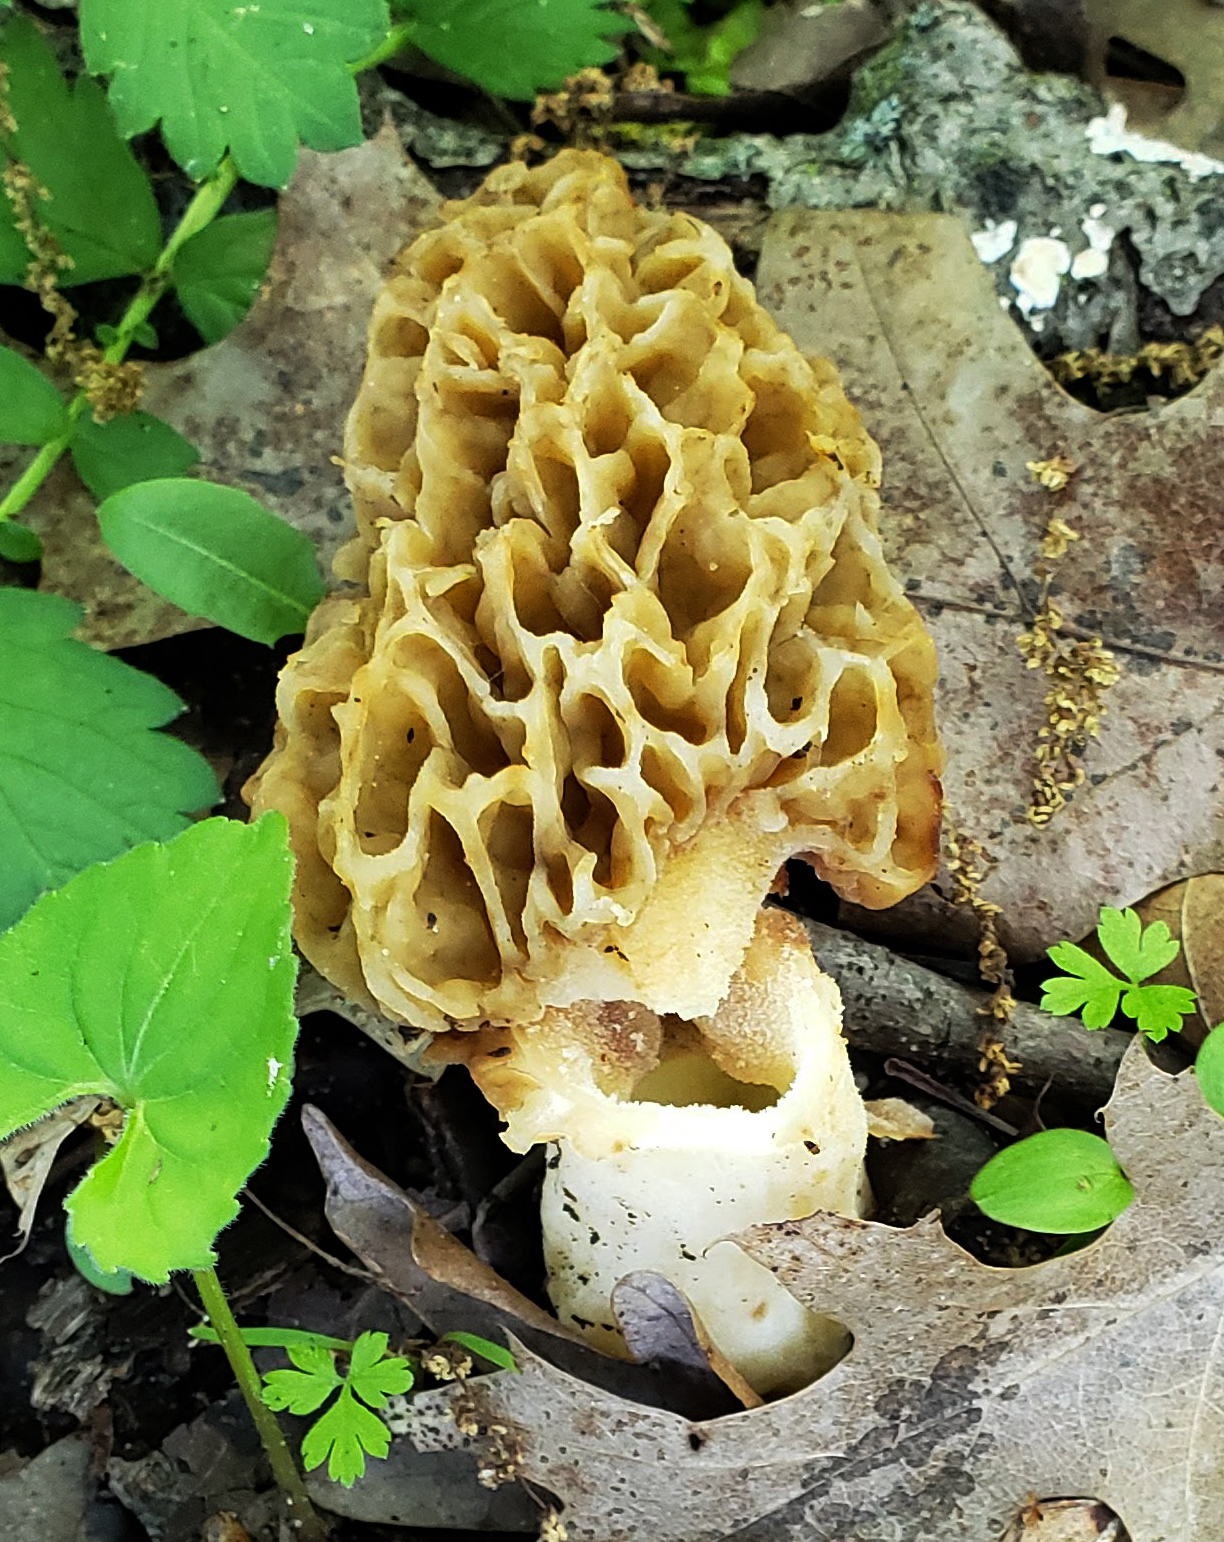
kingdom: Fungi
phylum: Ascomycota
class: Pezizomycetes
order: Pezizales
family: Morchellaceae
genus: Morchella
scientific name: Morchella americana
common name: White morel
